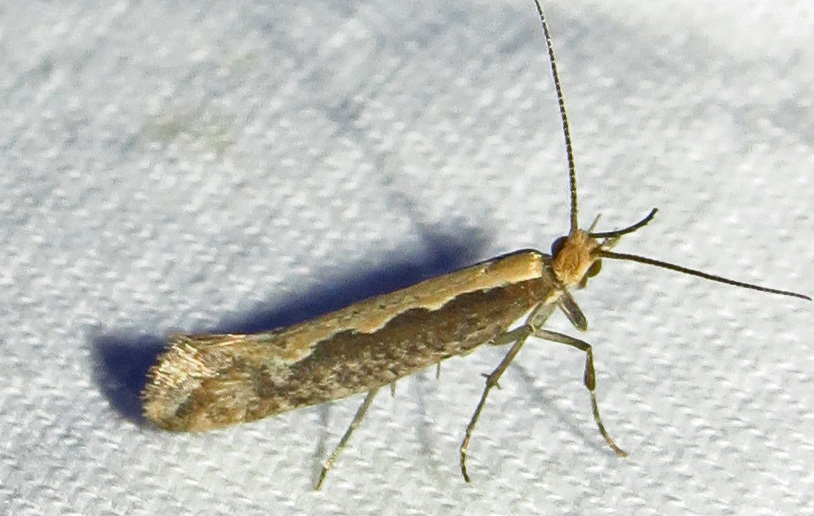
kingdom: Animalia
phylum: Arthropoda
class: Insecta
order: Lepidoptera
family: Plutellidae
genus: Plutella
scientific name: Plutella xylostella
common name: Diamond-back moth
